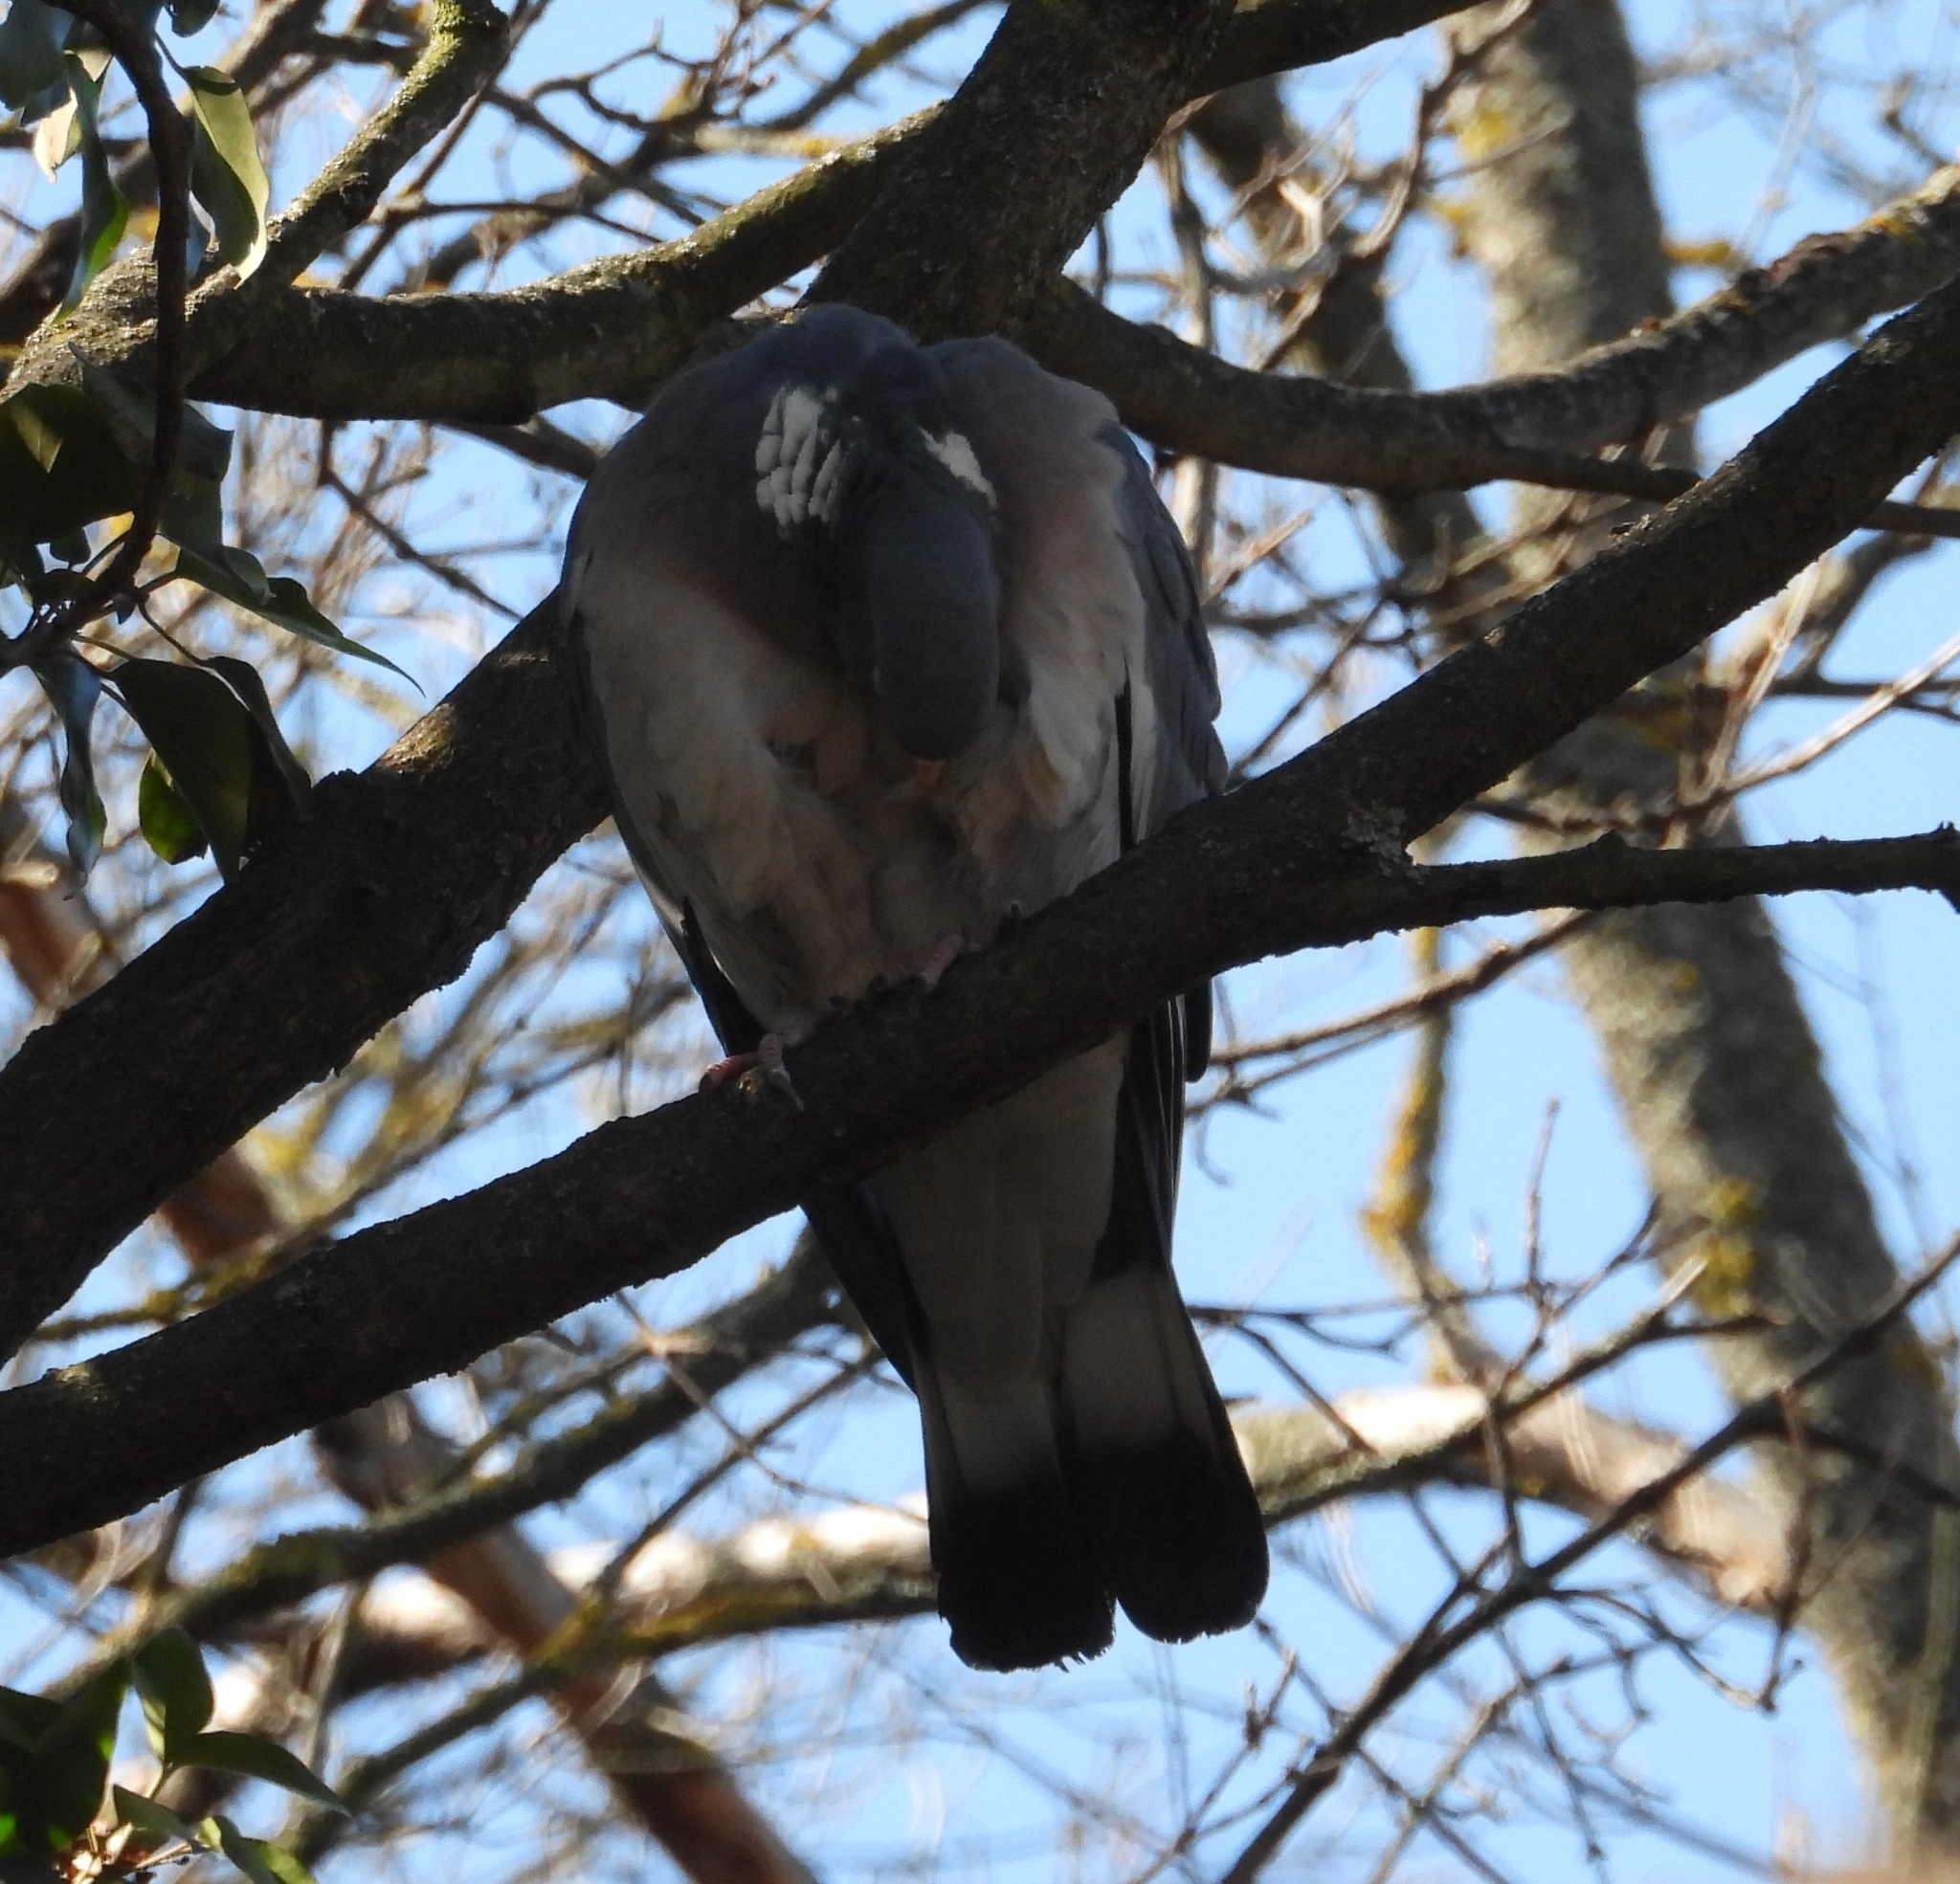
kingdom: Animalia
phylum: Chordata
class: Aves
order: Columbiformes
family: Columbidae
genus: Columba
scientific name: Columba palumbus
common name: Common wood pigeon
